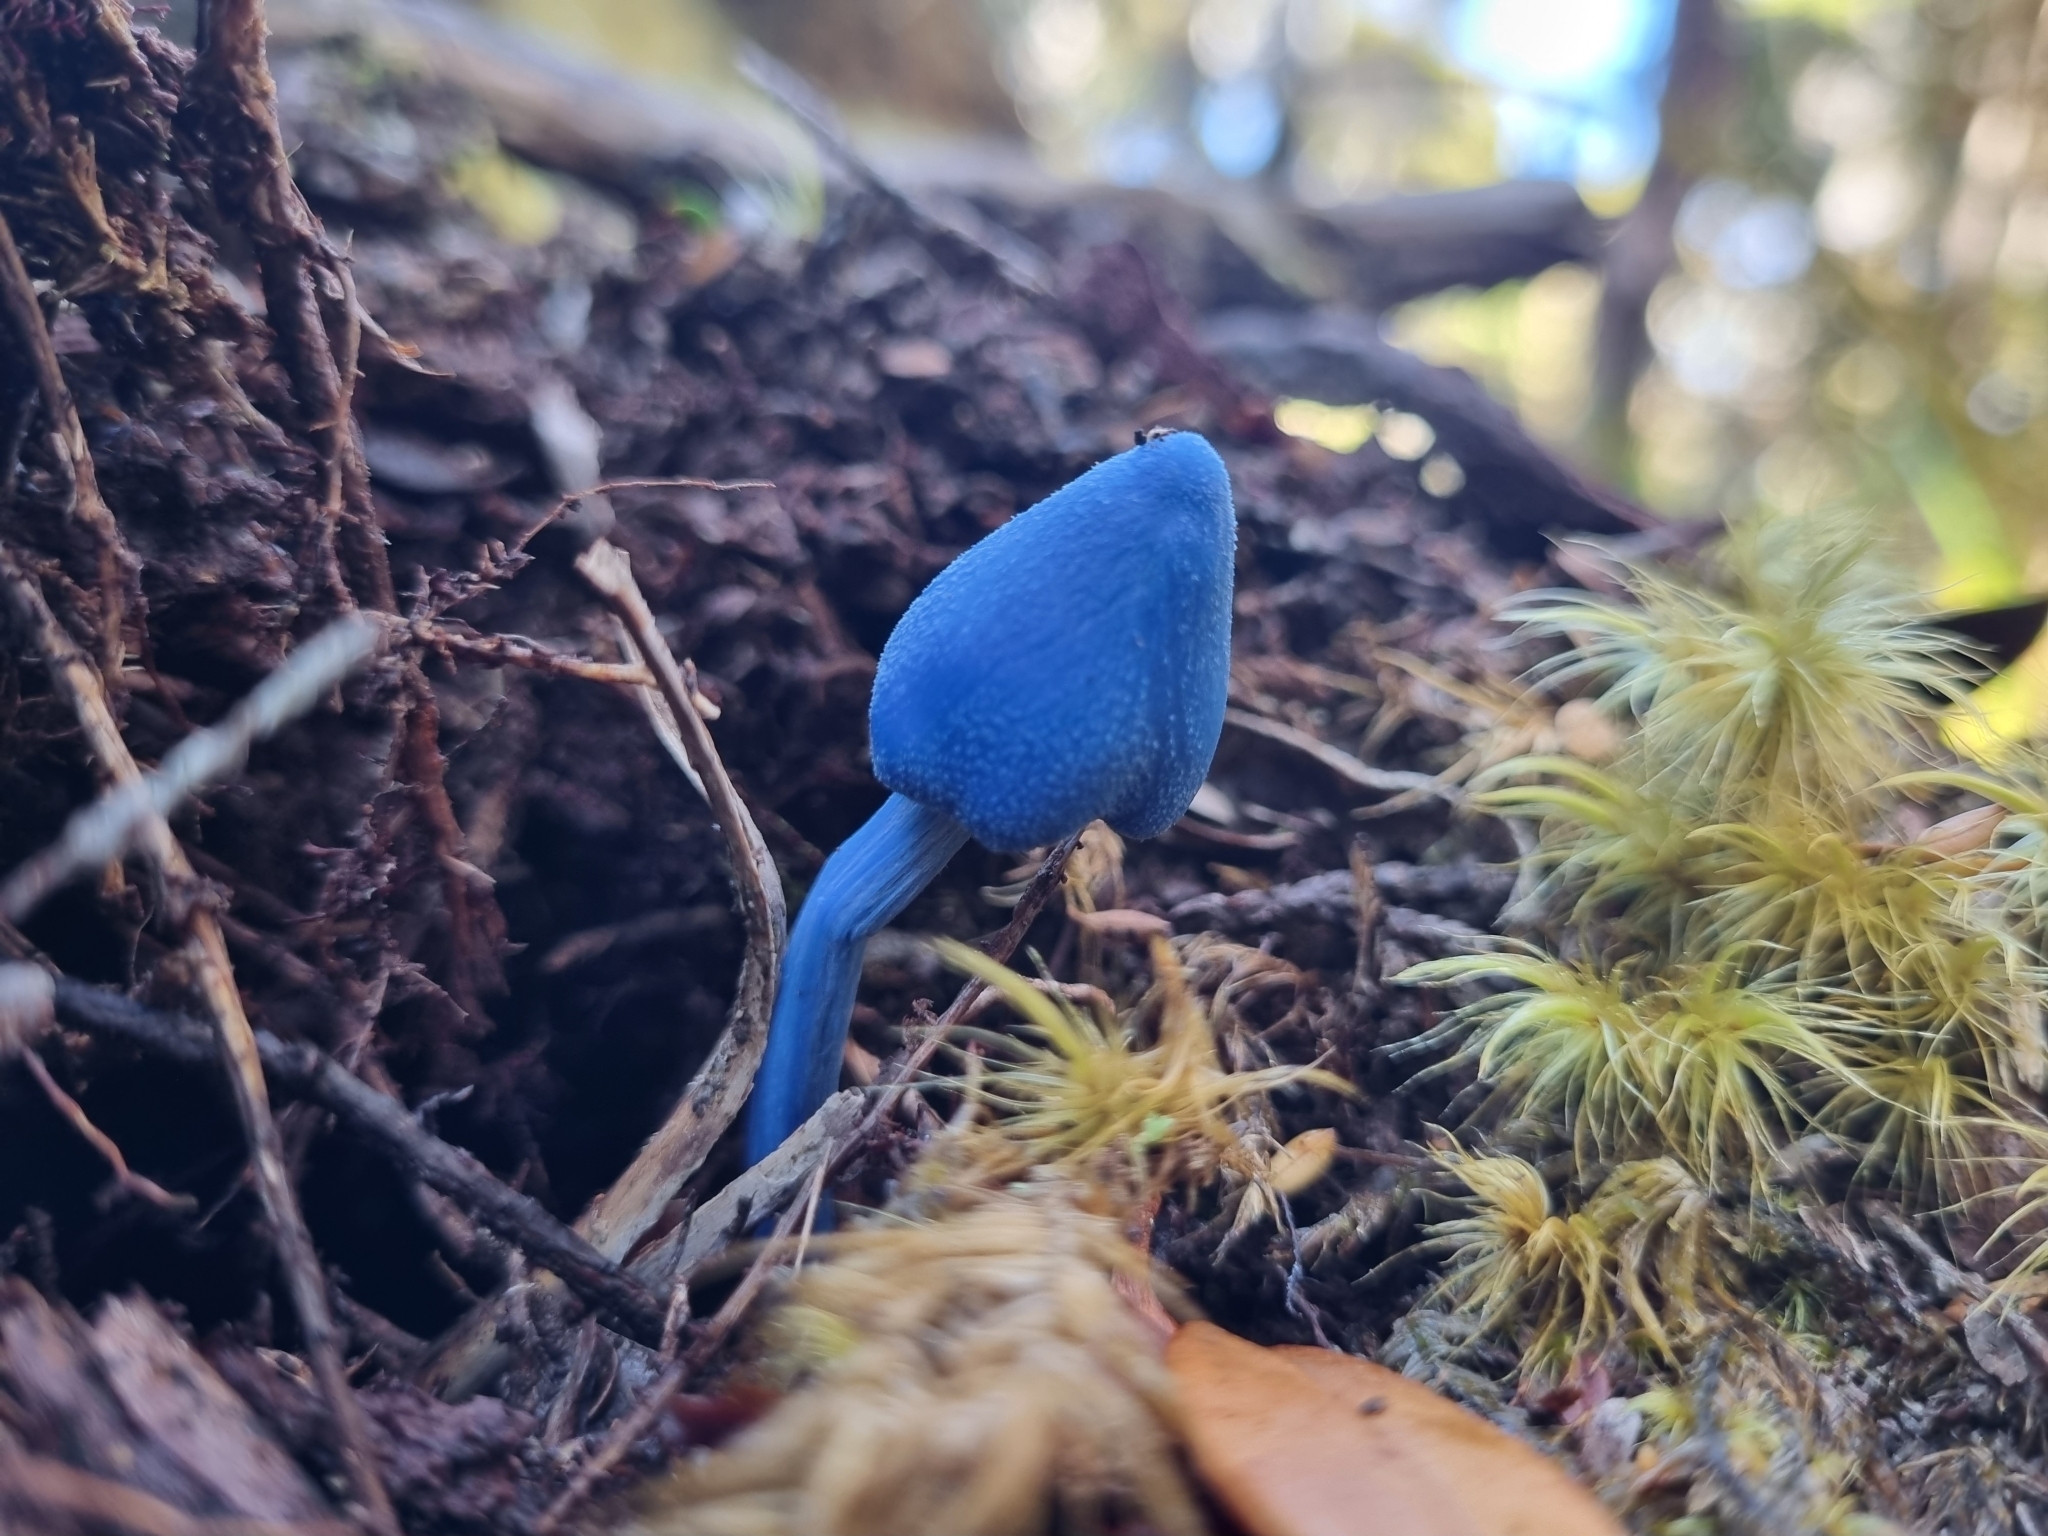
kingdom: Fungi
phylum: Basidiomycota
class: Agaricomycetes
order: Agaricales
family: Entolomataceae
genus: Entoloma
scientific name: Entoloma hochstetteri
